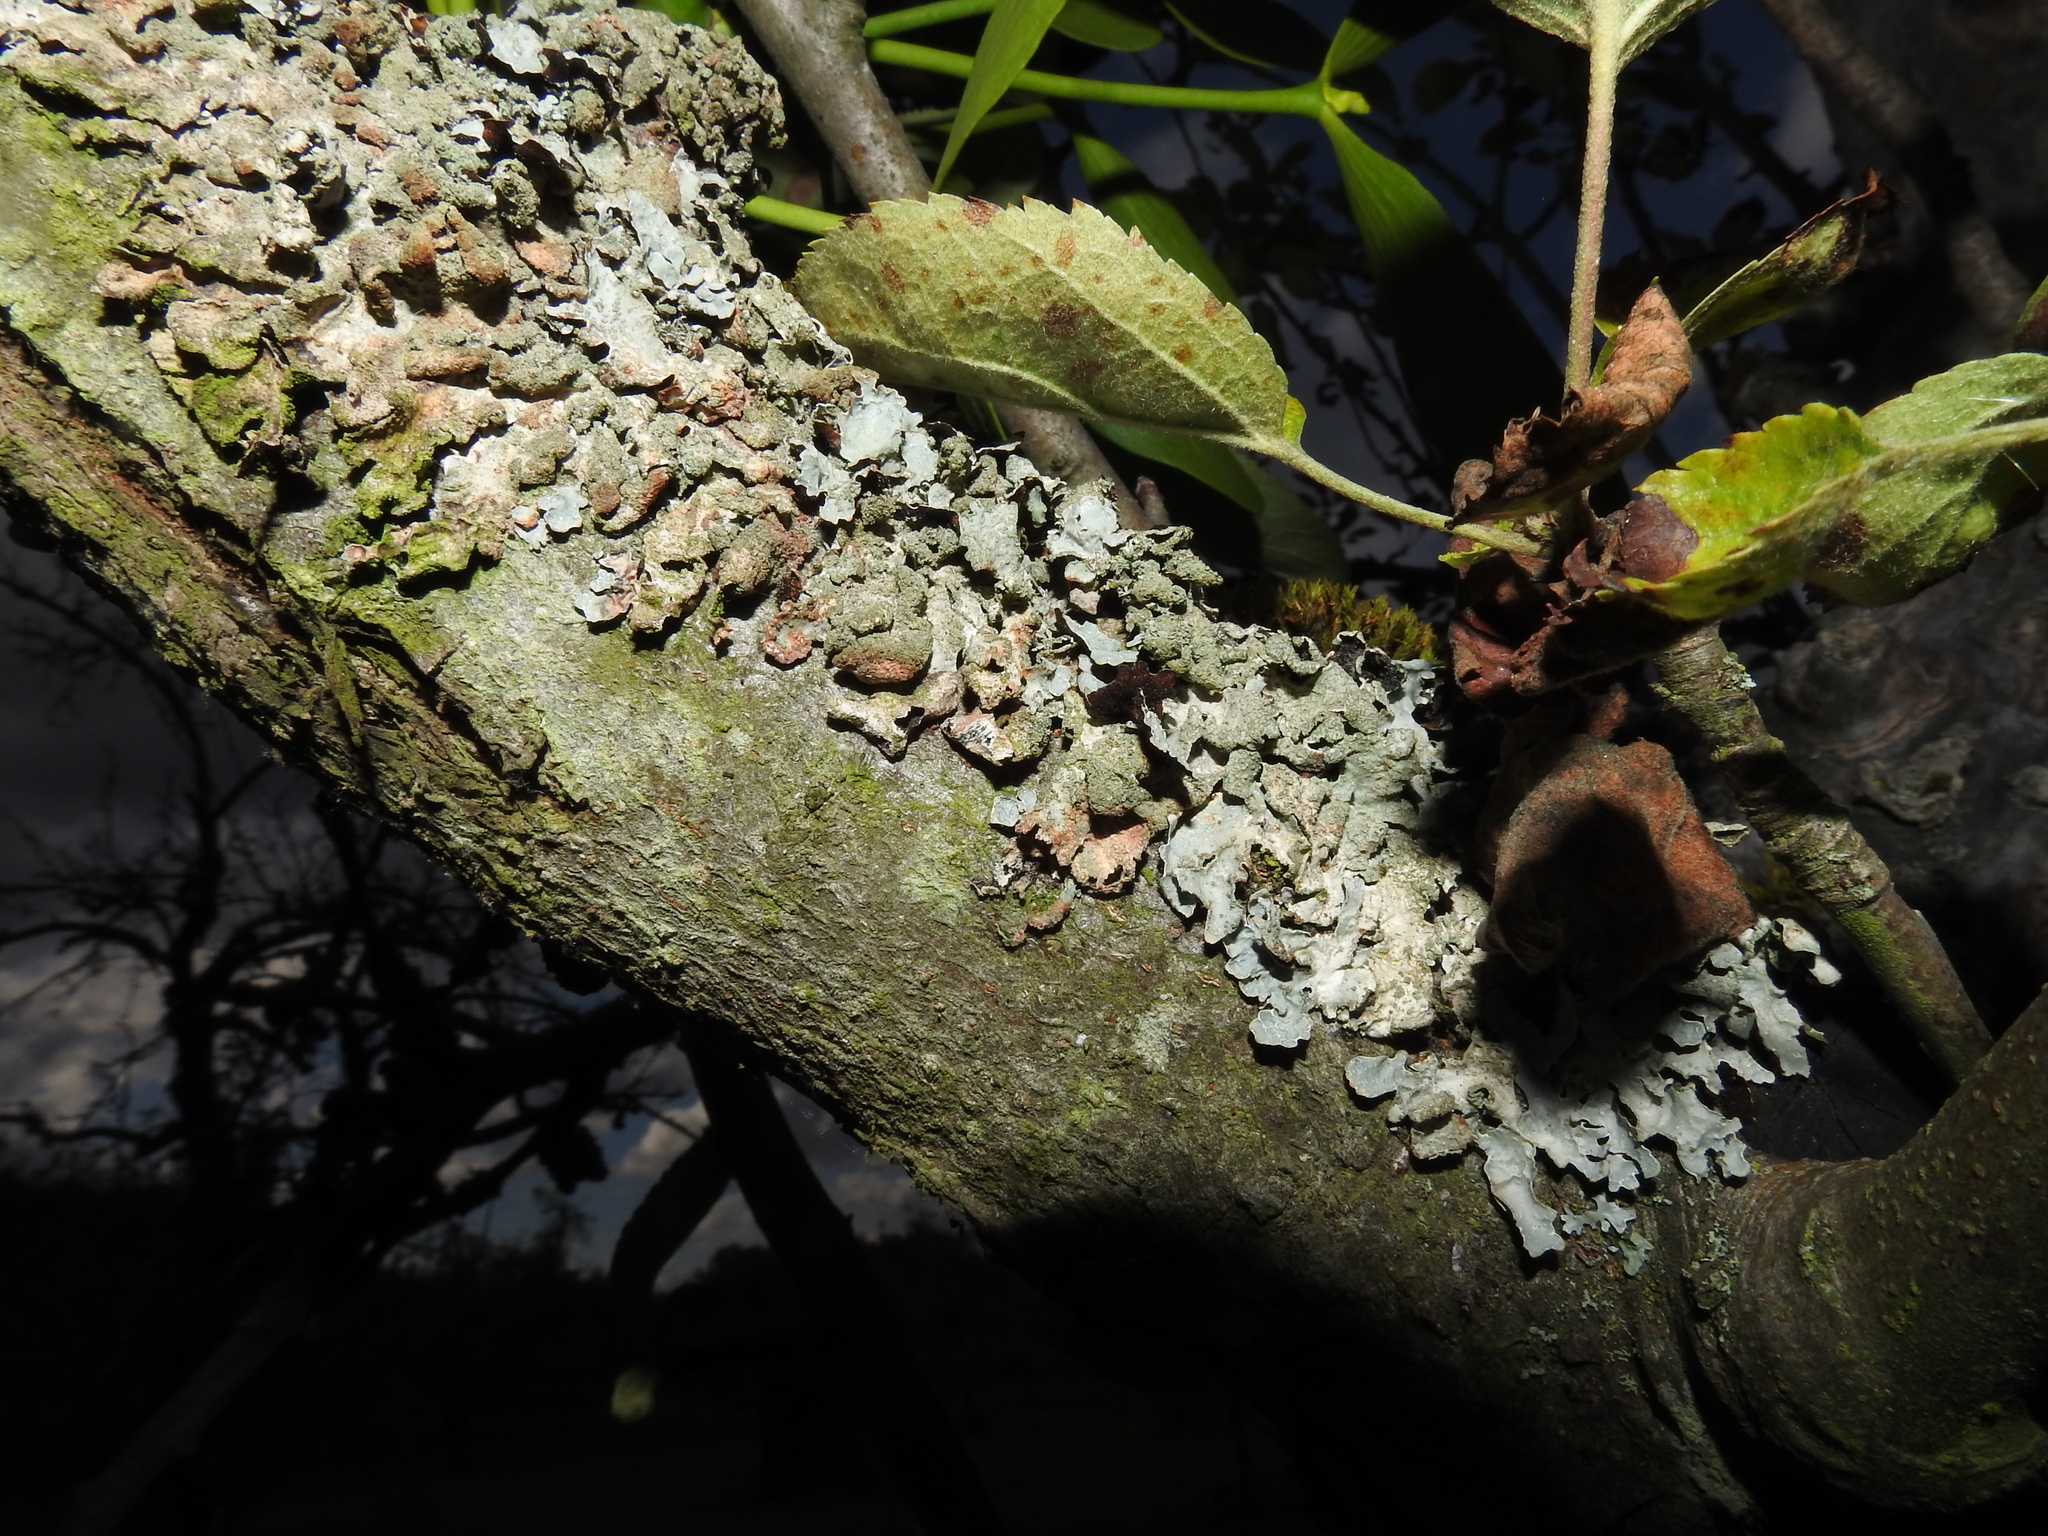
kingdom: Fungi
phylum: Ascomycota
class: Lecanoromycetes
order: Lecanorales
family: Parmeliaceae
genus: Parmelia
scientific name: Parmelia sulcata
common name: Netted shield lichen
